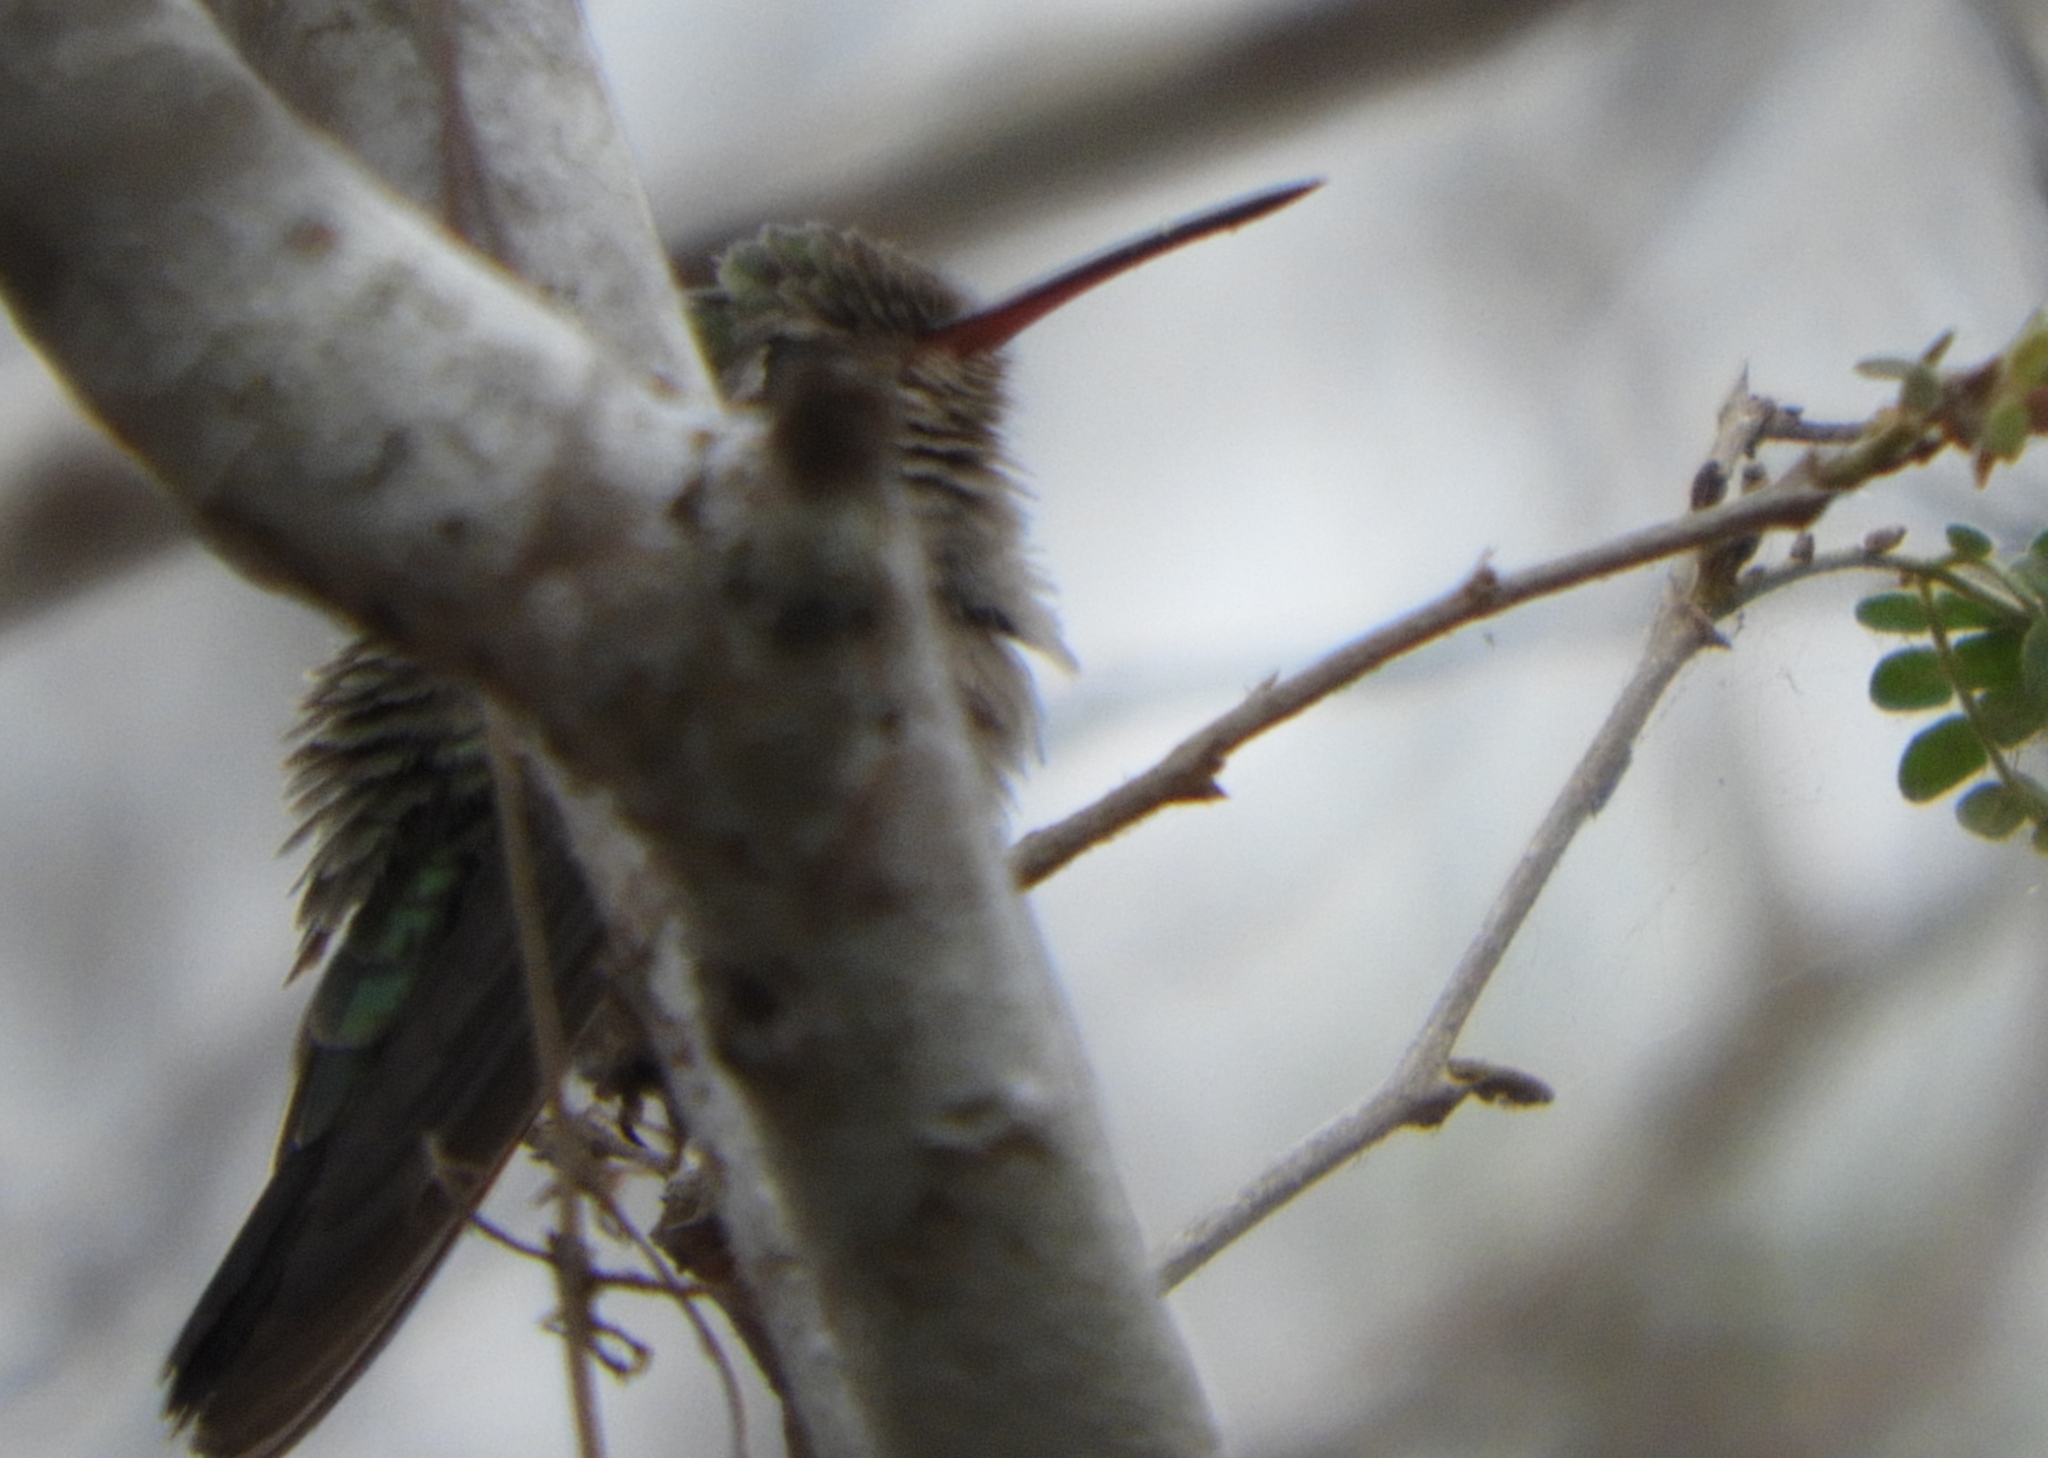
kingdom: Animalia
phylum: Chordata
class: Aves
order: Apodiformes
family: Trochilidae
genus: Cynanthus
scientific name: Cynanthus latirostris
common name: Broad-billed hummingbird
